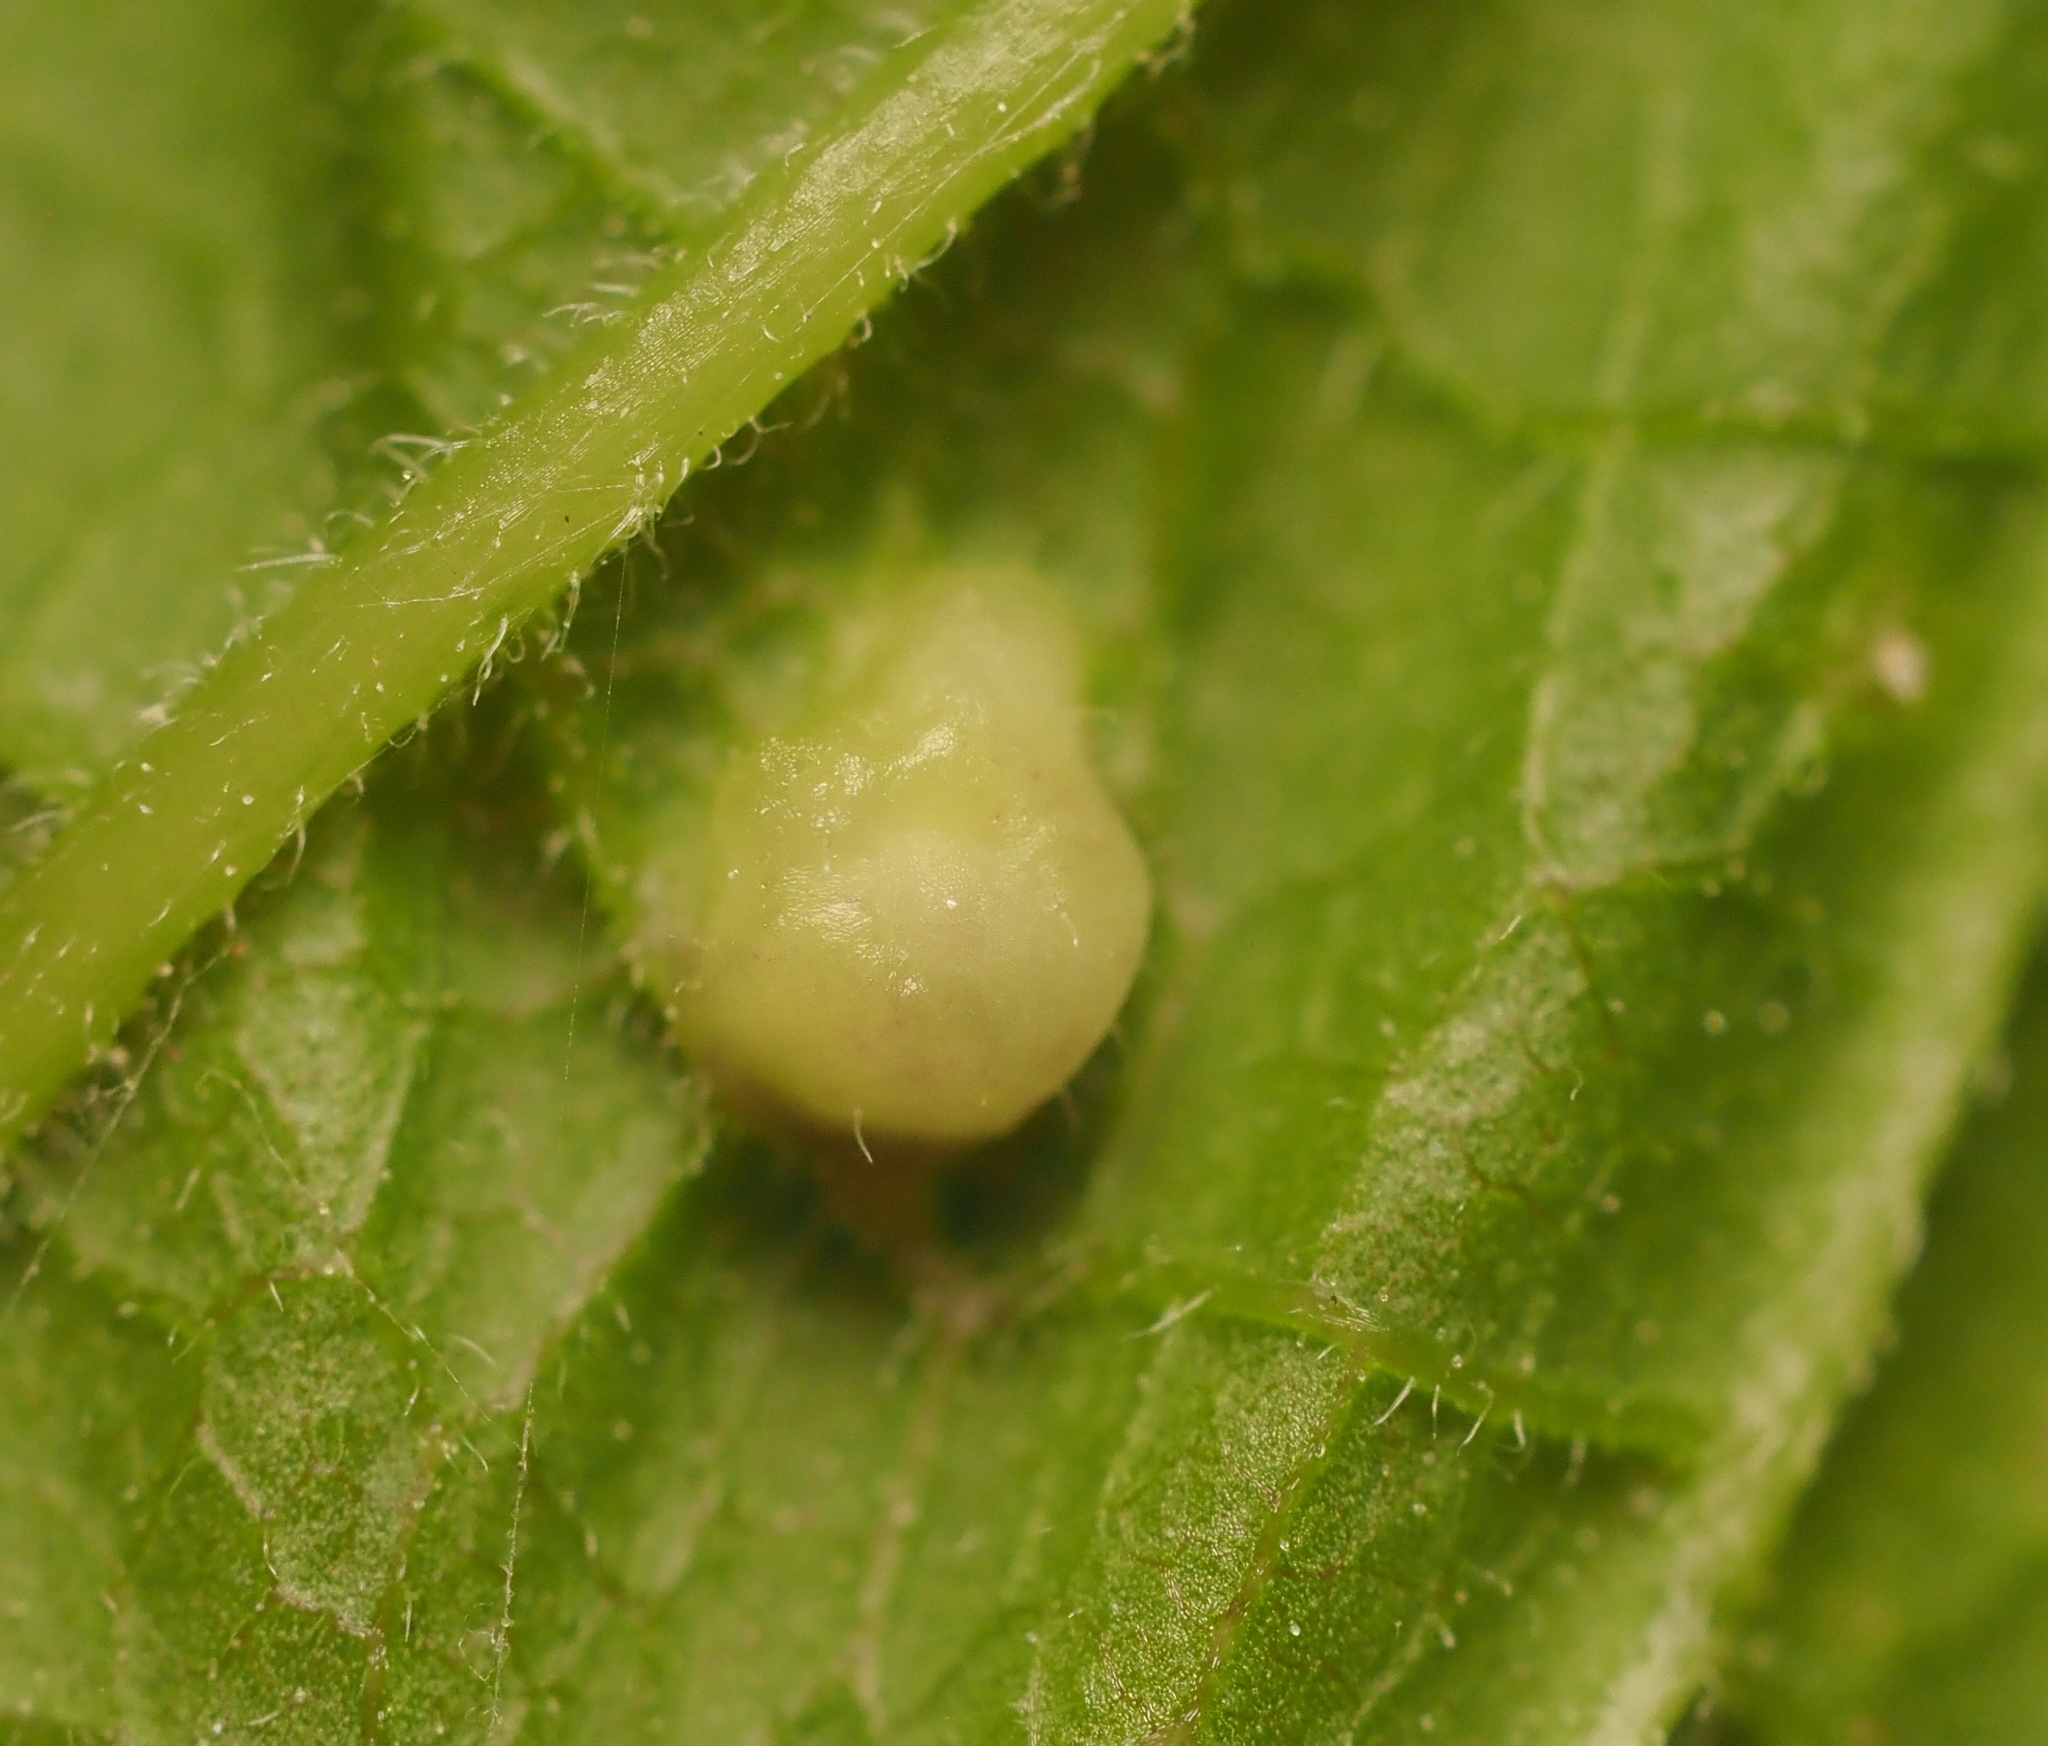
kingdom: Animalia
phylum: Arthropoda
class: Insecta
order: Hemiptera
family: Aphalaridae
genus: Pachypsylla
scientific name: Pachypsylla celtidismamma
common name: Hackberry nipplegall psyllid
